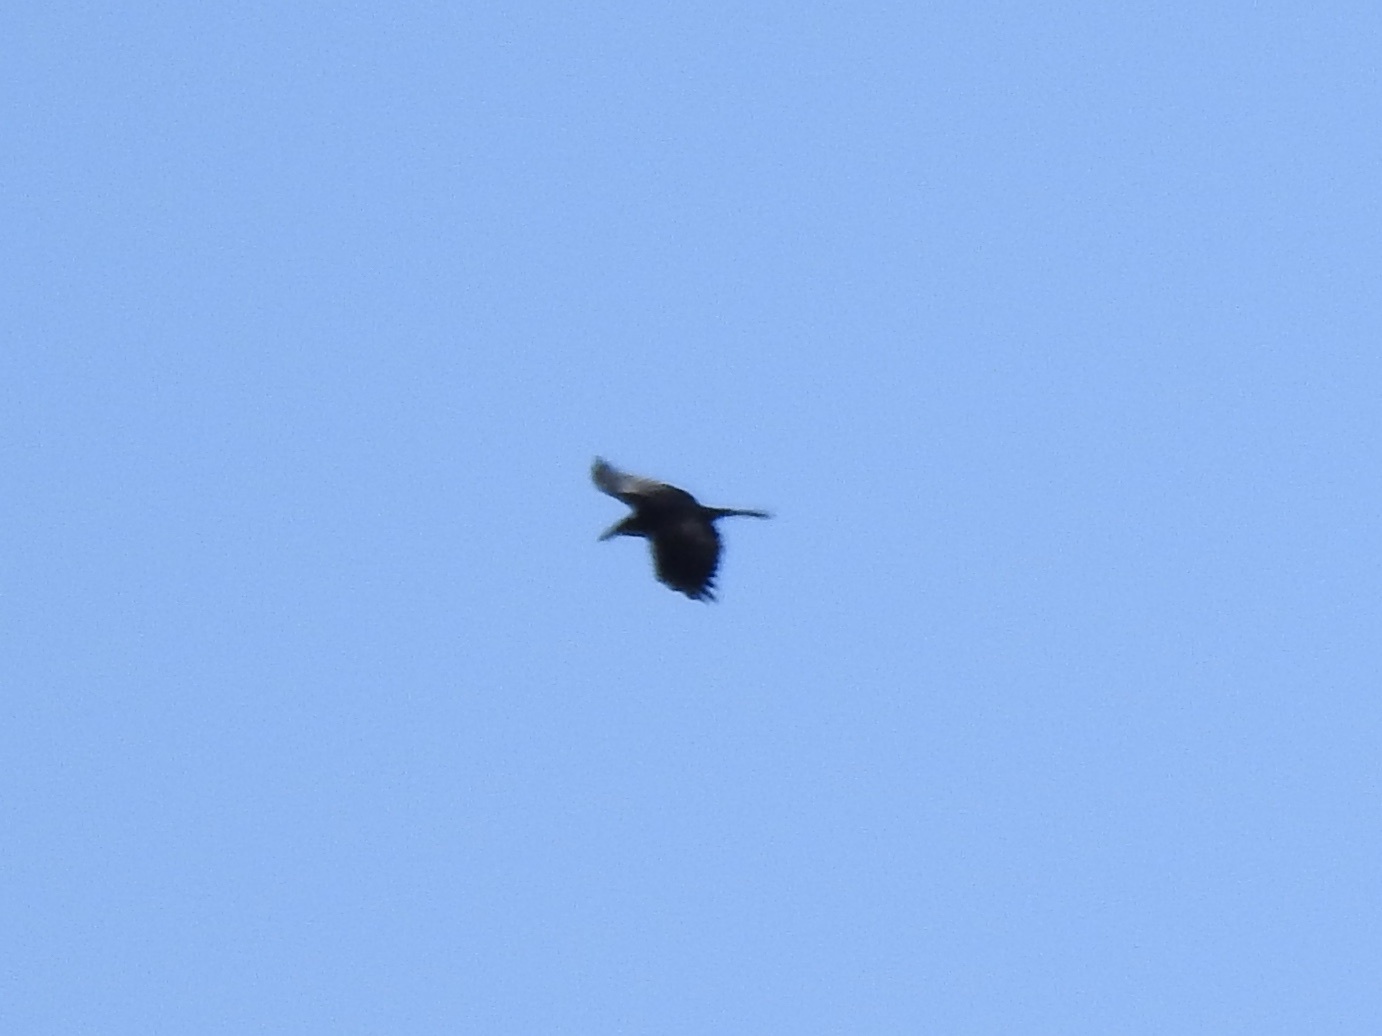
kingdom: Animalia
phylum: Chordata
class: Aves
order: Passeriformes
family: Corvidae
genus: Corvus
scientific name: Corvus corax
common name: Common raven
